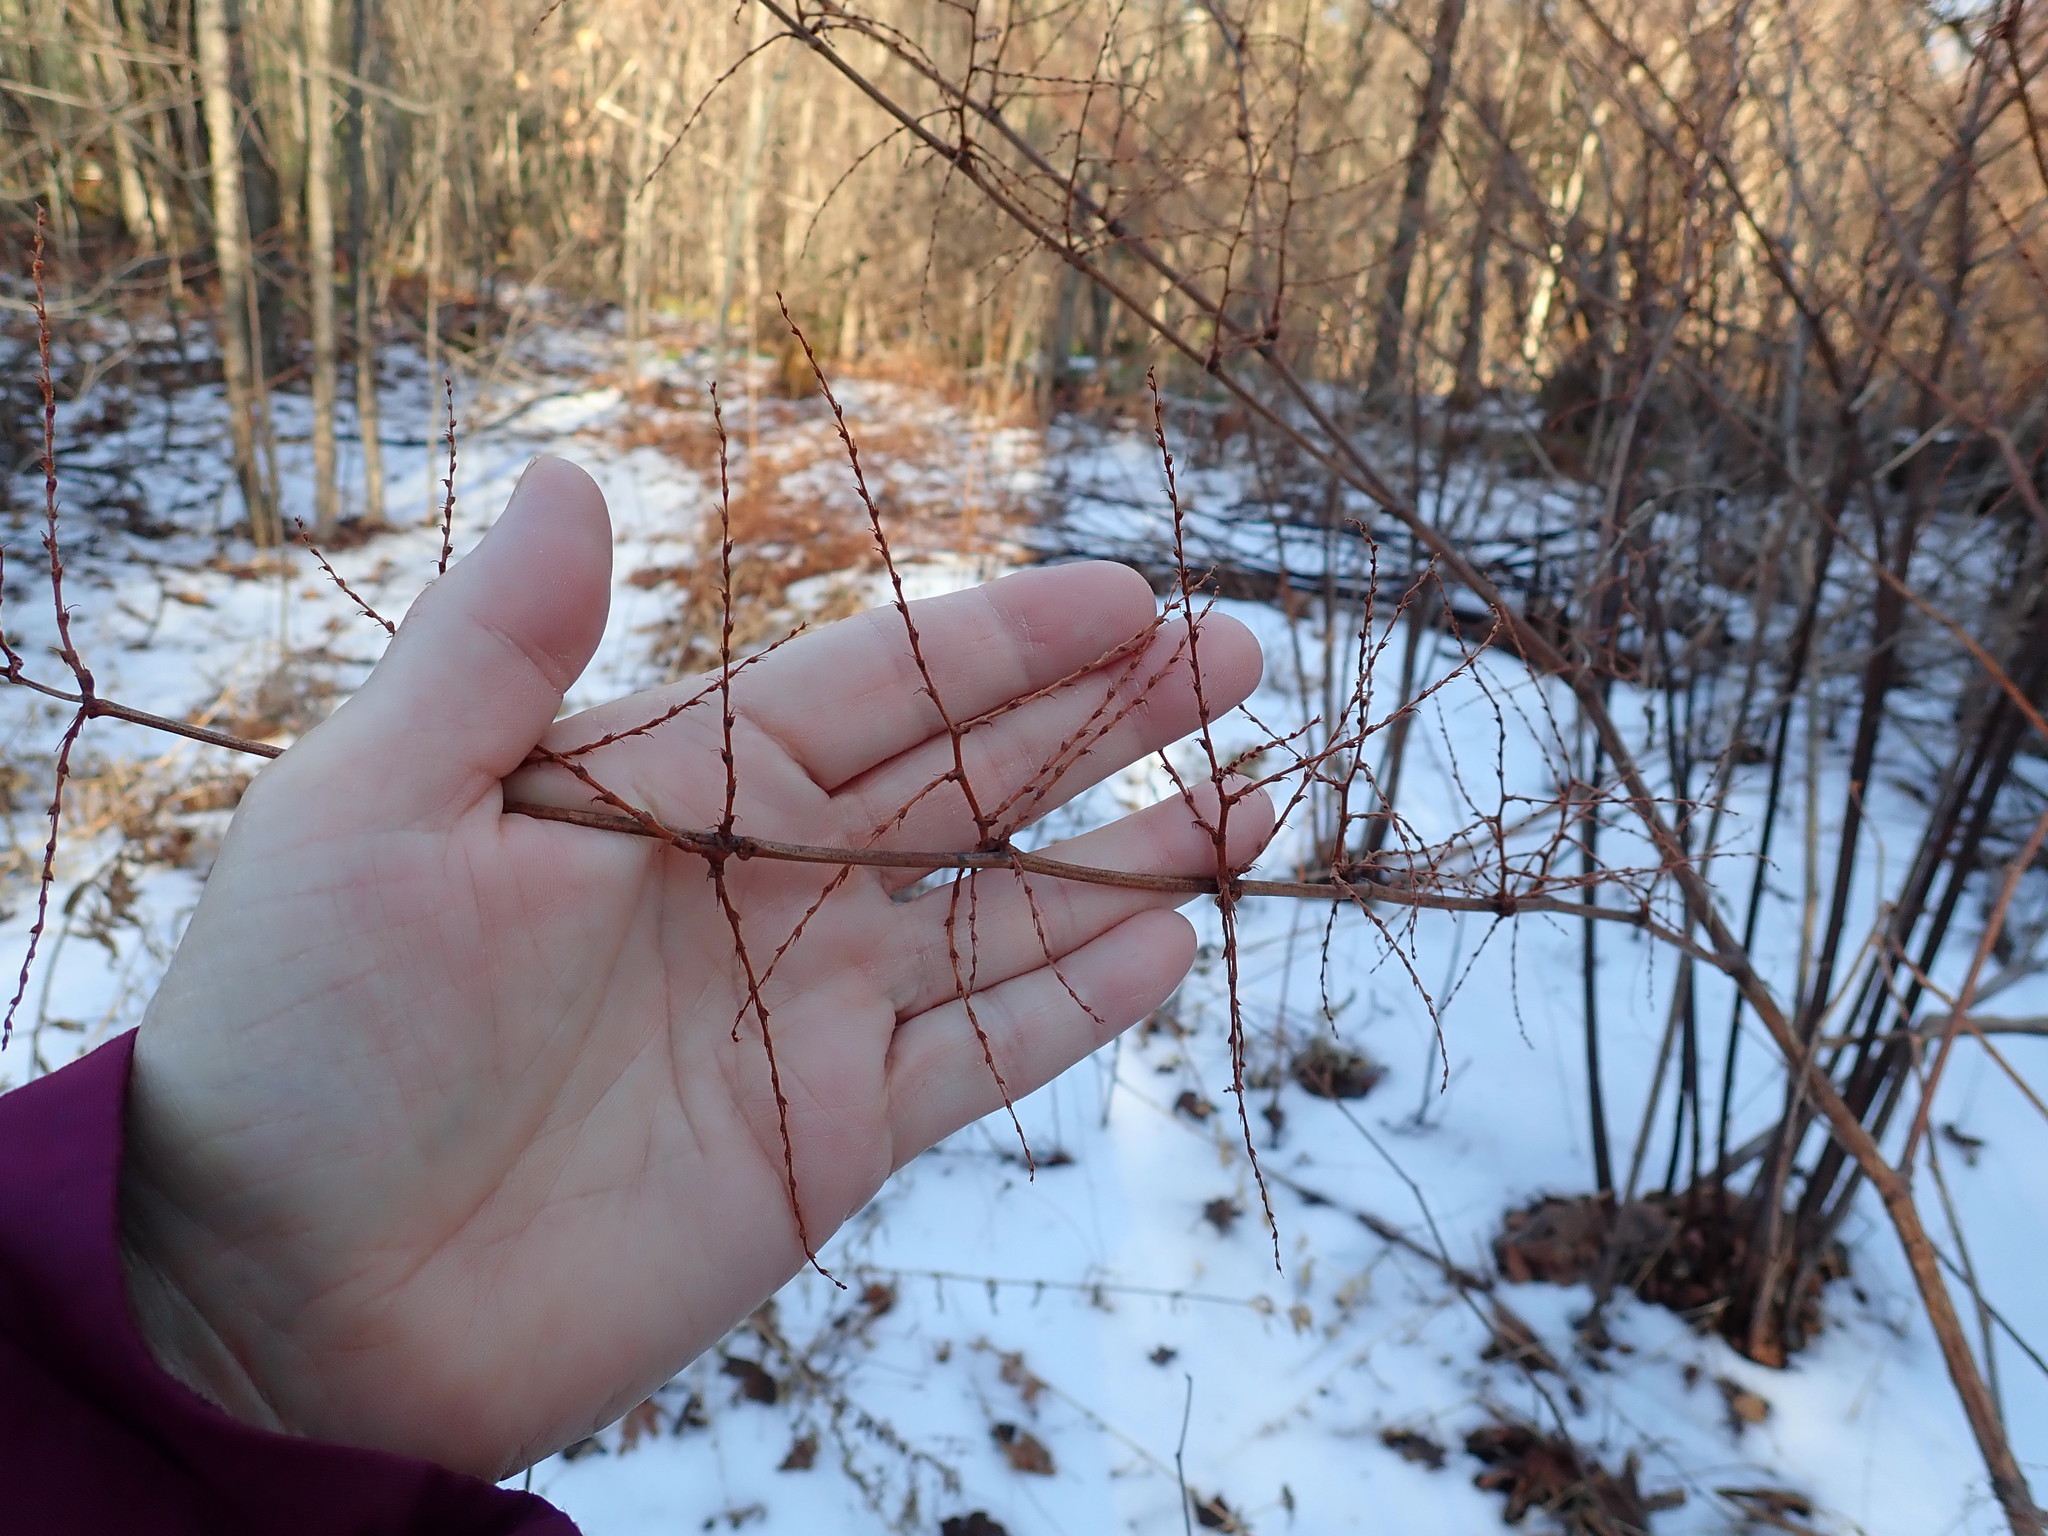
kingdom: Plantae
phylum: Tracheophyta
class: Magnoliopsida
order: Caryophyllales
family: Polygonaceae
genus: Reynoutria
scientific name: Reynoutria
